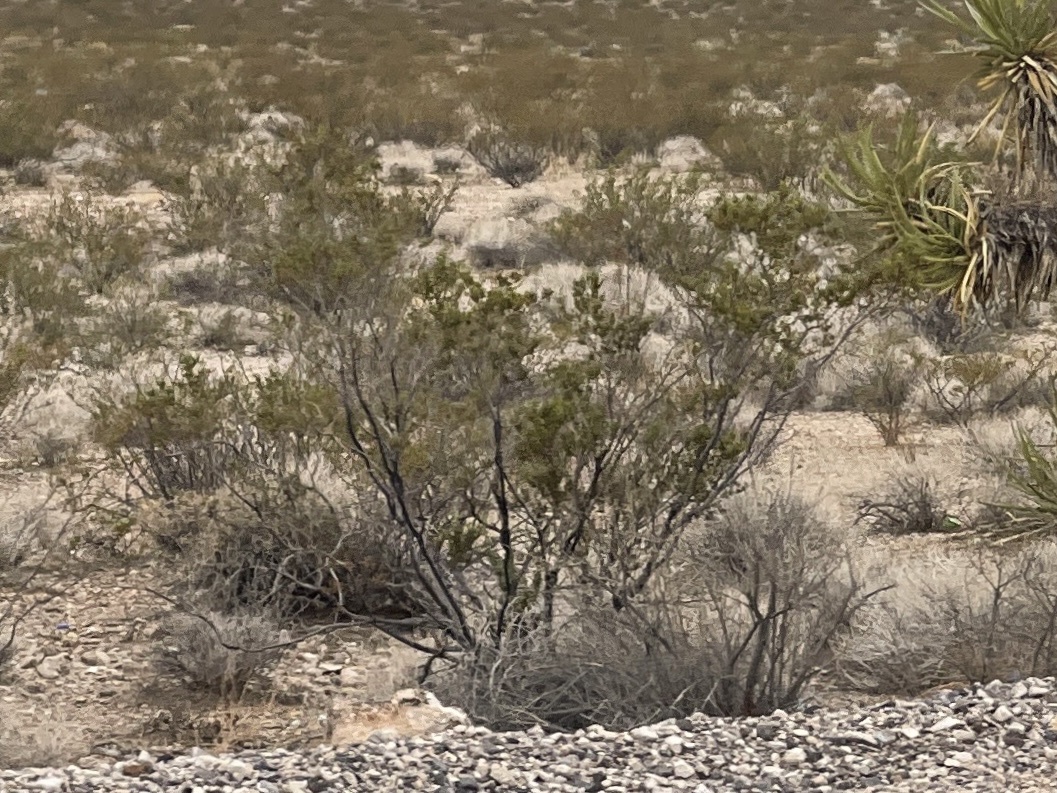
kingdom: Plantae
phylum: Tracheophyta
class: Magnoliopsida
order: Zygophyllales
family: Zygophyllaceae
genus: Larrea
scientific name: Larrea tridentata
